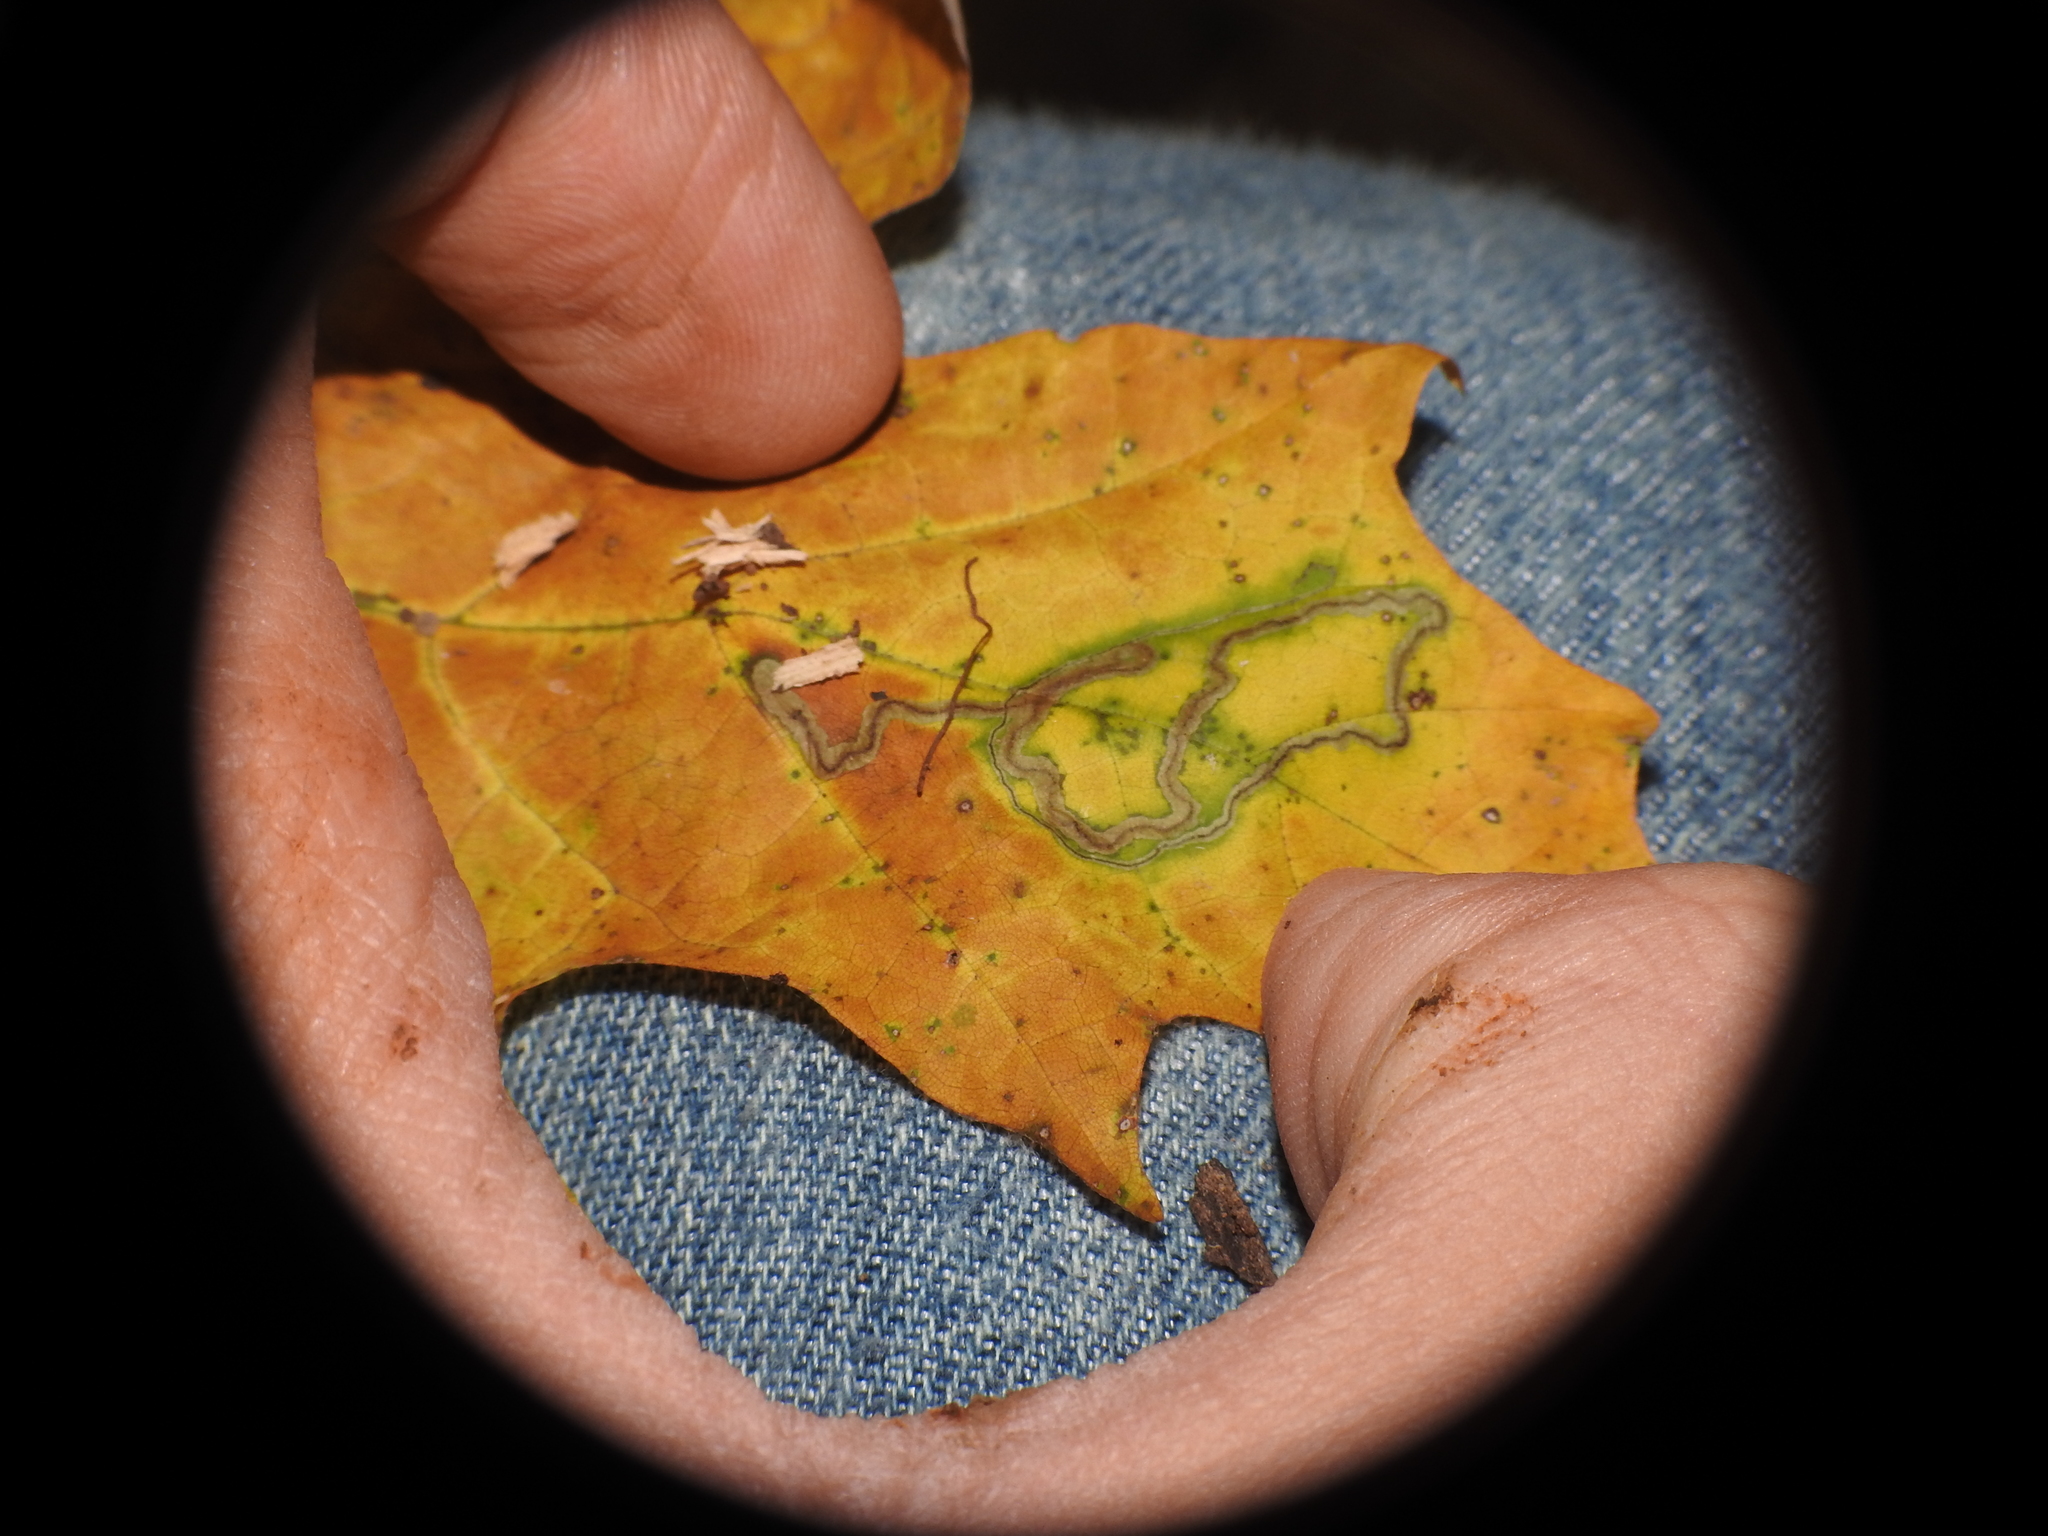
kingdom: Animalia
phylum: Arthropoda
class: Insecta
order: Lepidoptera
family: Nepticulidae
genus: Glaucolepis
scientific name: Glaucolepis saccharella
